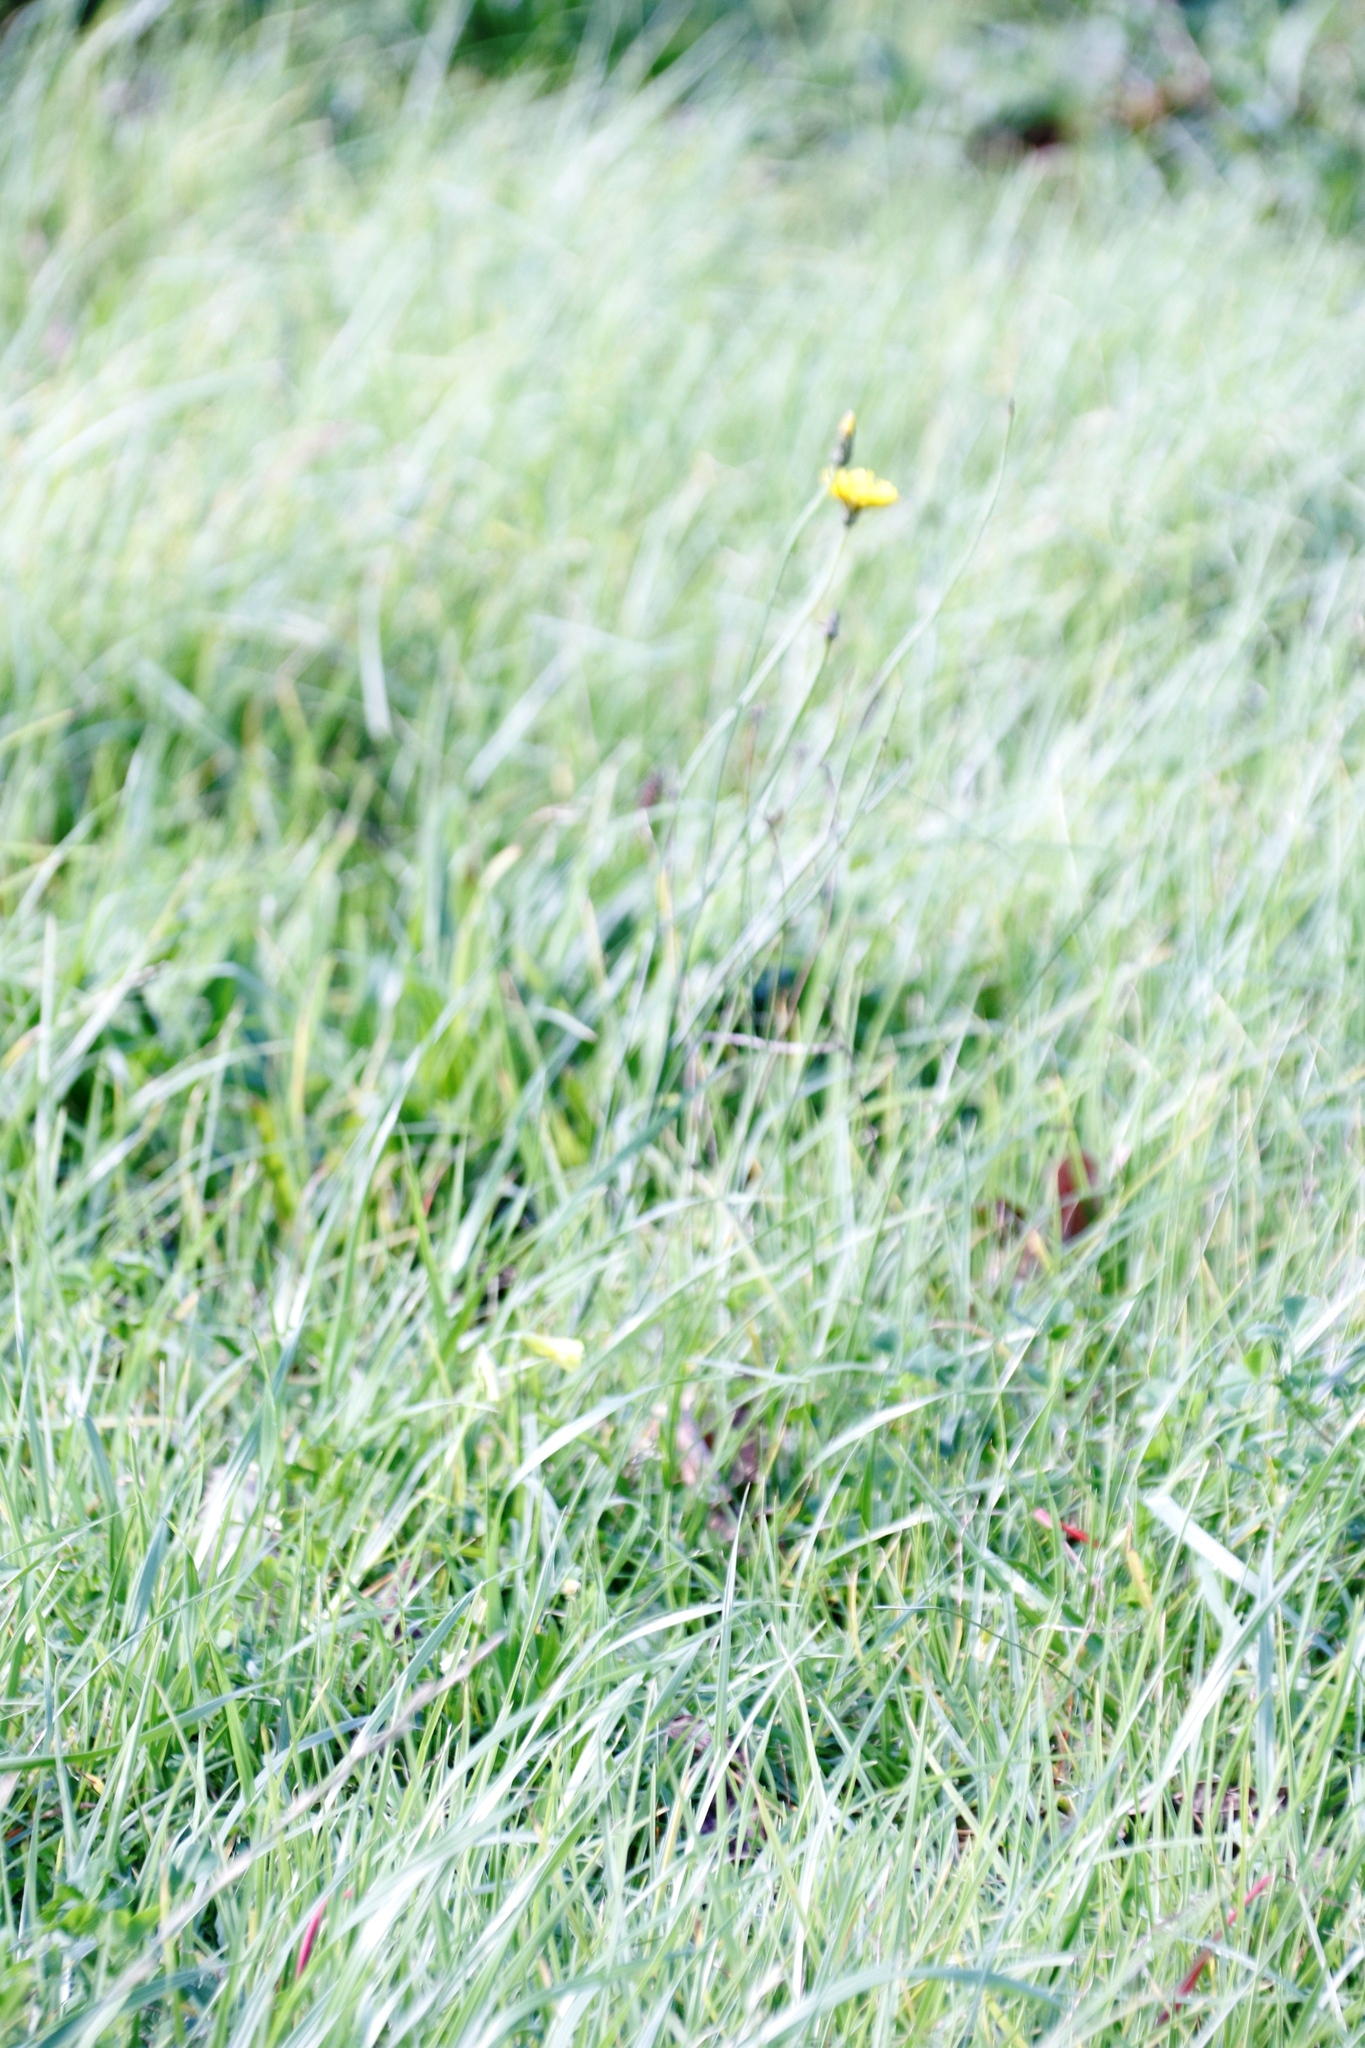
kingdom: Plantae
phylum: Tracheophyta
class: Magnoliopsida
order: Asterales
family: Asteraceae
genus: Hypochaeris
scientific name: Hypochaeris radicata
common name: Flatweed
